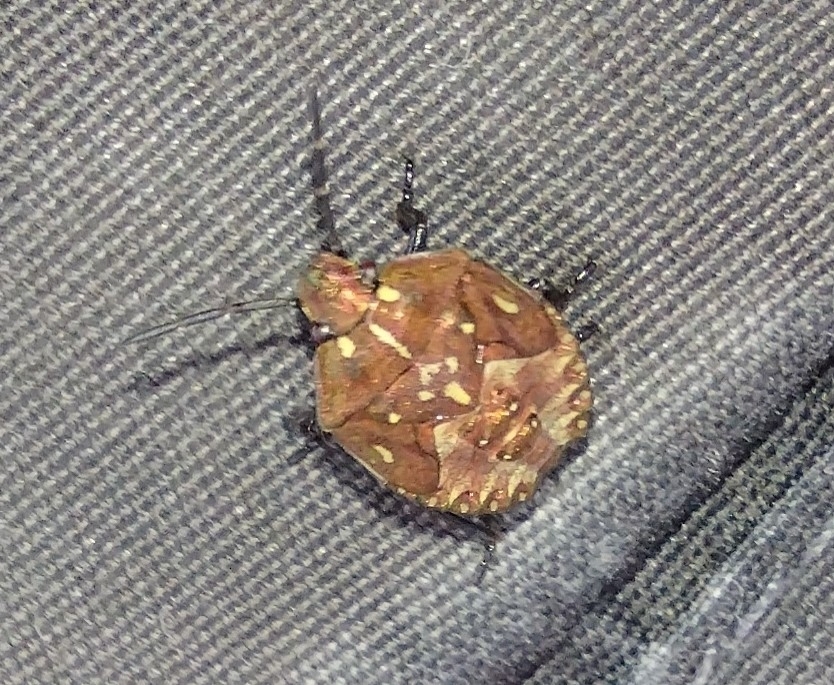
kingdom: Animalia
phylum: Arthropoda
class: Insecta
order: Hemiptera
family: Pentatomidae
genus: Carpocoris
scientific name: Carpocoris purpureipennis
